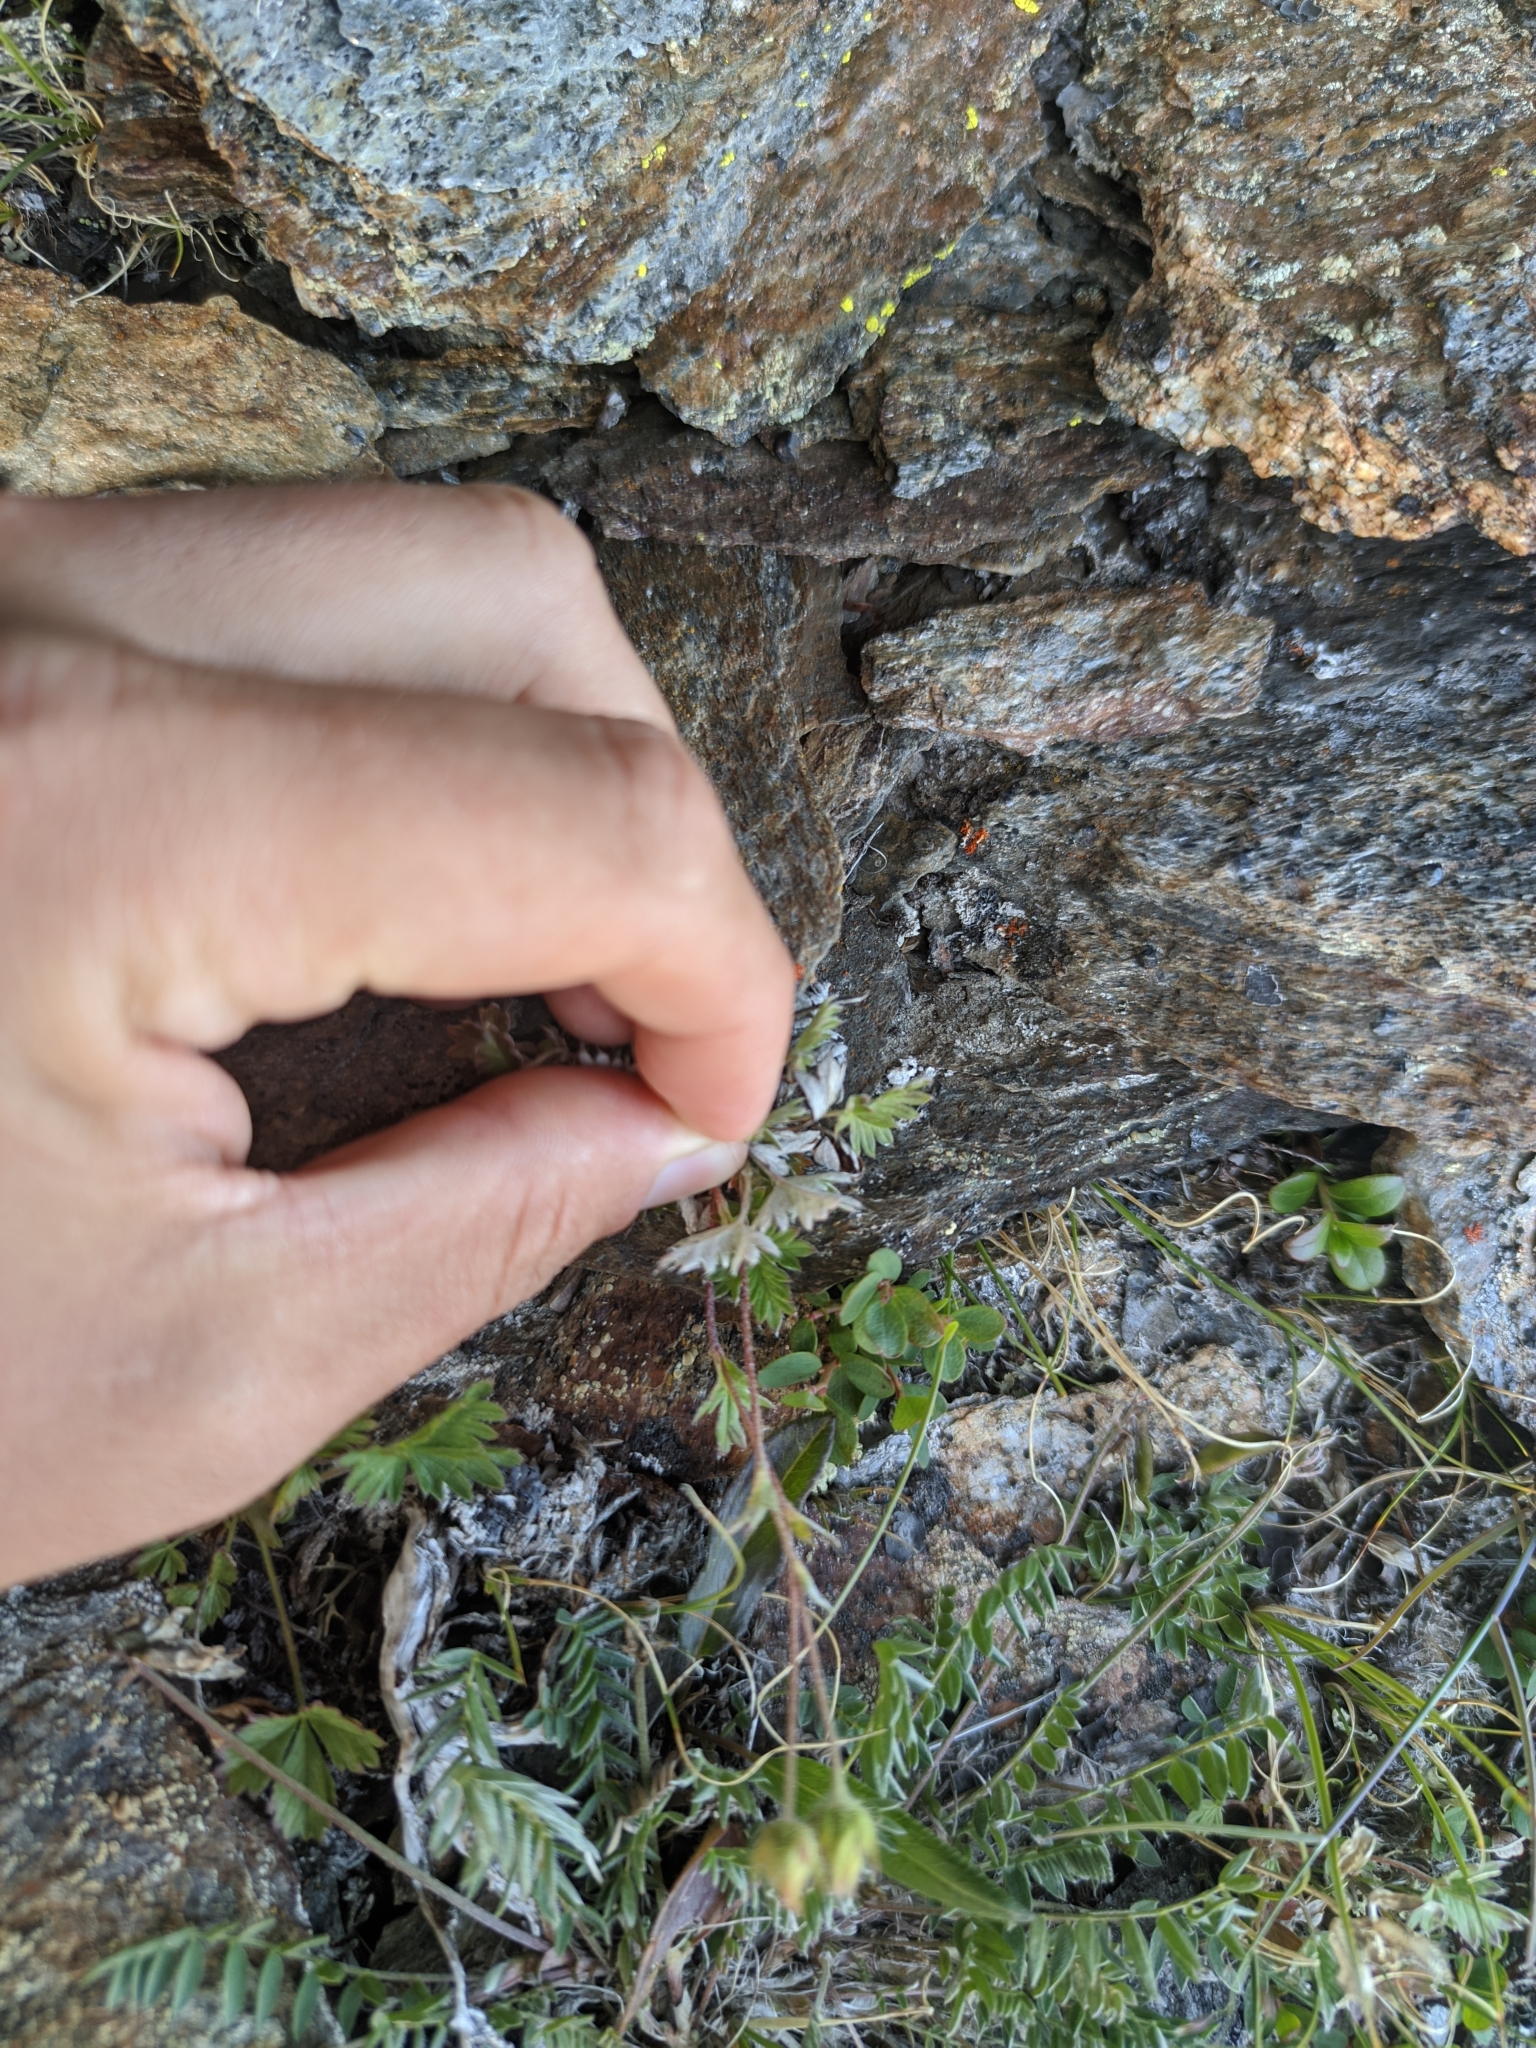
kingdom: Plantae
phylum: Tracheophyta
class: Magnoliopsida
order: Rosales
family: Rosaceae
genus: Potentilla
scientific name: Potentilla nivea
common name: Snow cinquefoil
